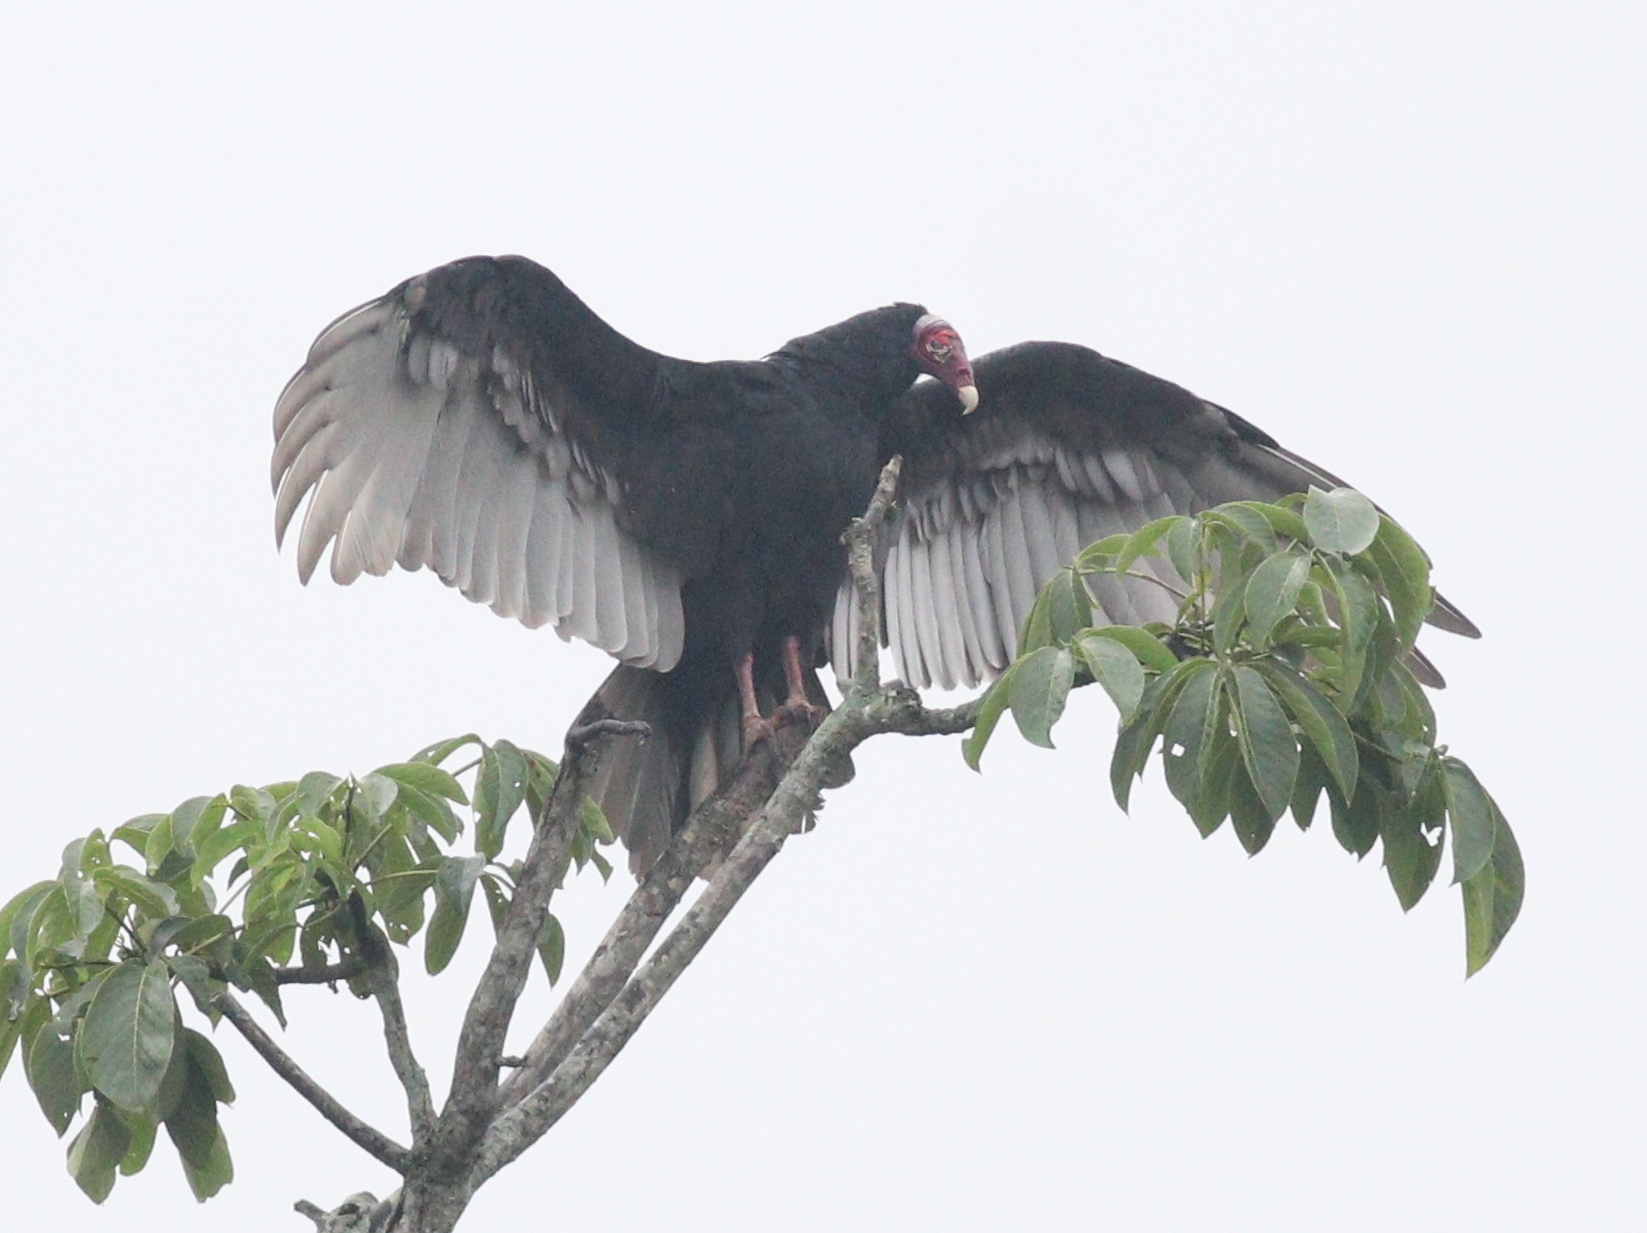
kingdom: Animalia
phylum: Chordata
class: Aves
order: Accipitriformes
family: Cathartidae
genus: Cathartes
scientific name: Cathartes aura
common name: Turkey vulture
